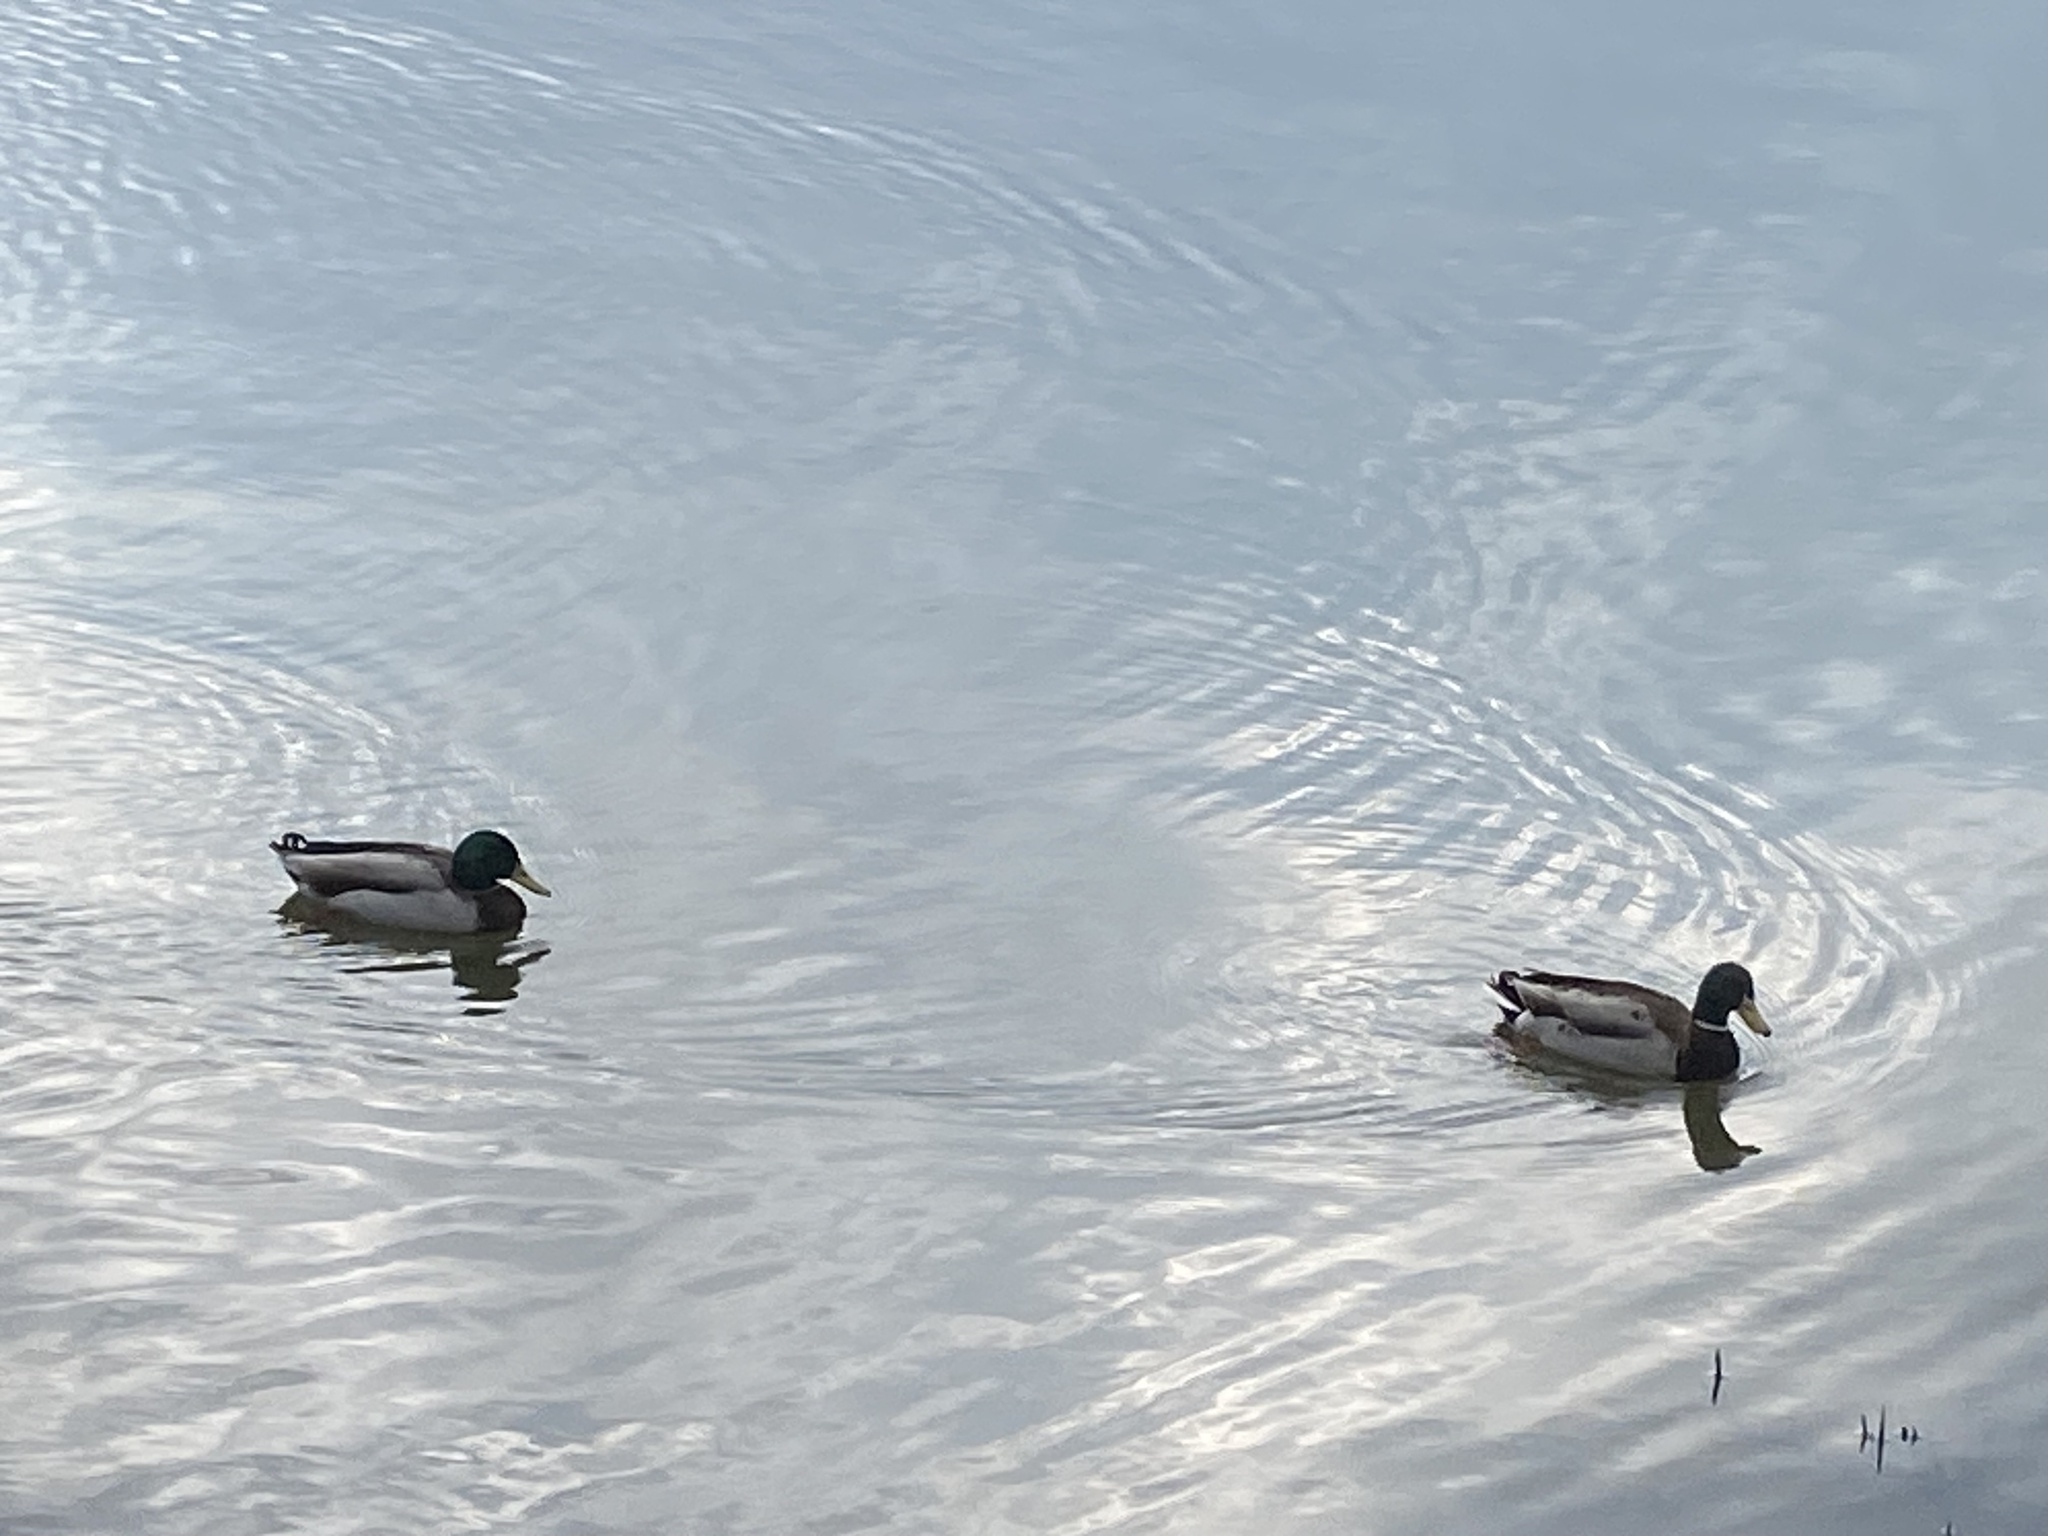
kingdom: Animalia
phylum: Chordata
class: Aves
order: Anseriformes
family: Anatidae
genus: Anas
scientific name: Anas platyrhynchos
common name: Mallard
